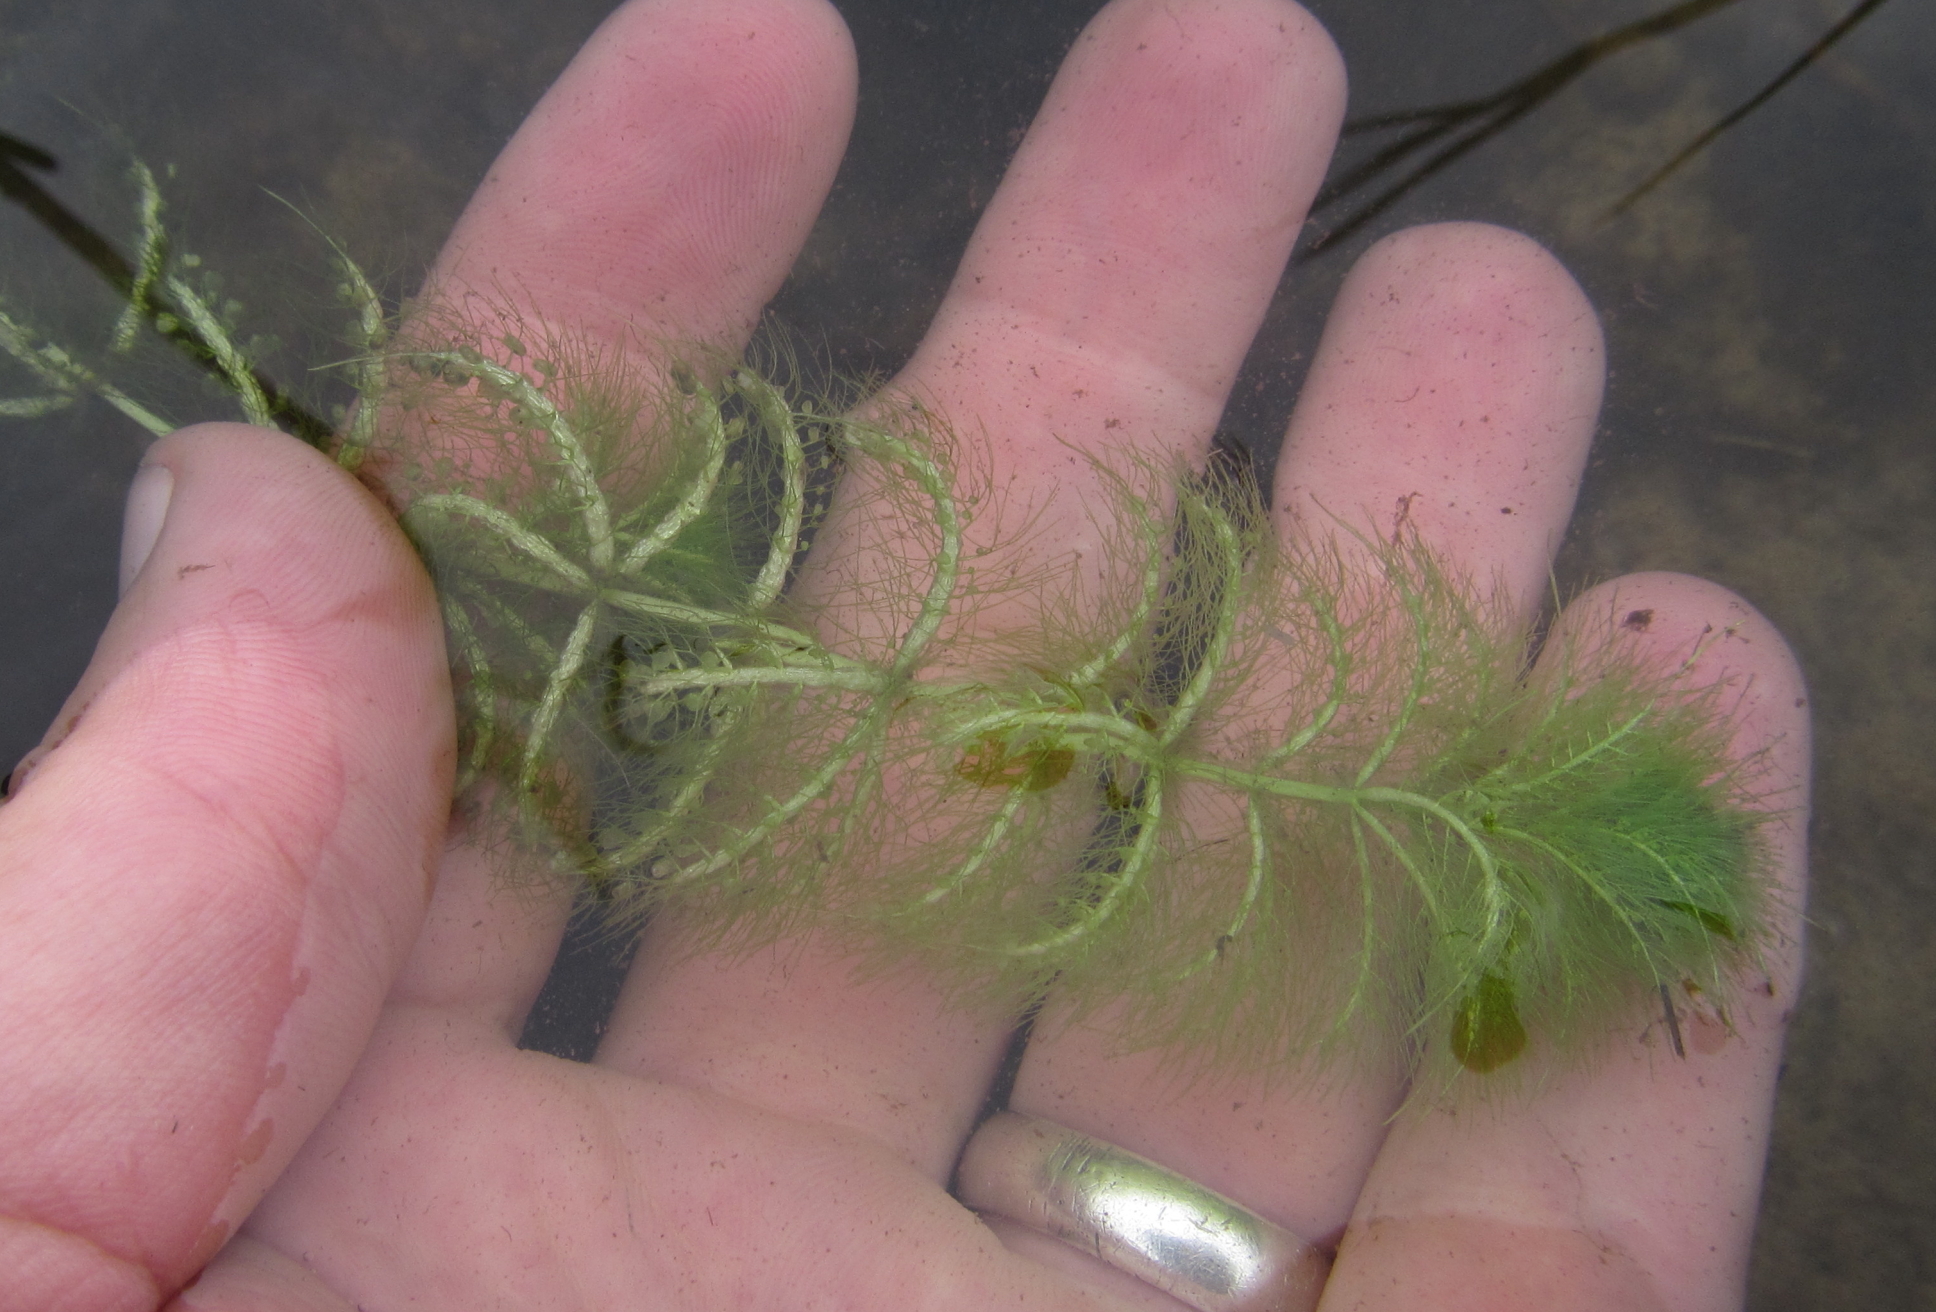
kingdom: Plantae
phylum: Tracheophyta
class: Magnoliopsida
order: Lamiales
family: Lentibulariaceae
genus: Utricularia
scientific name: Utricularia stellaris
